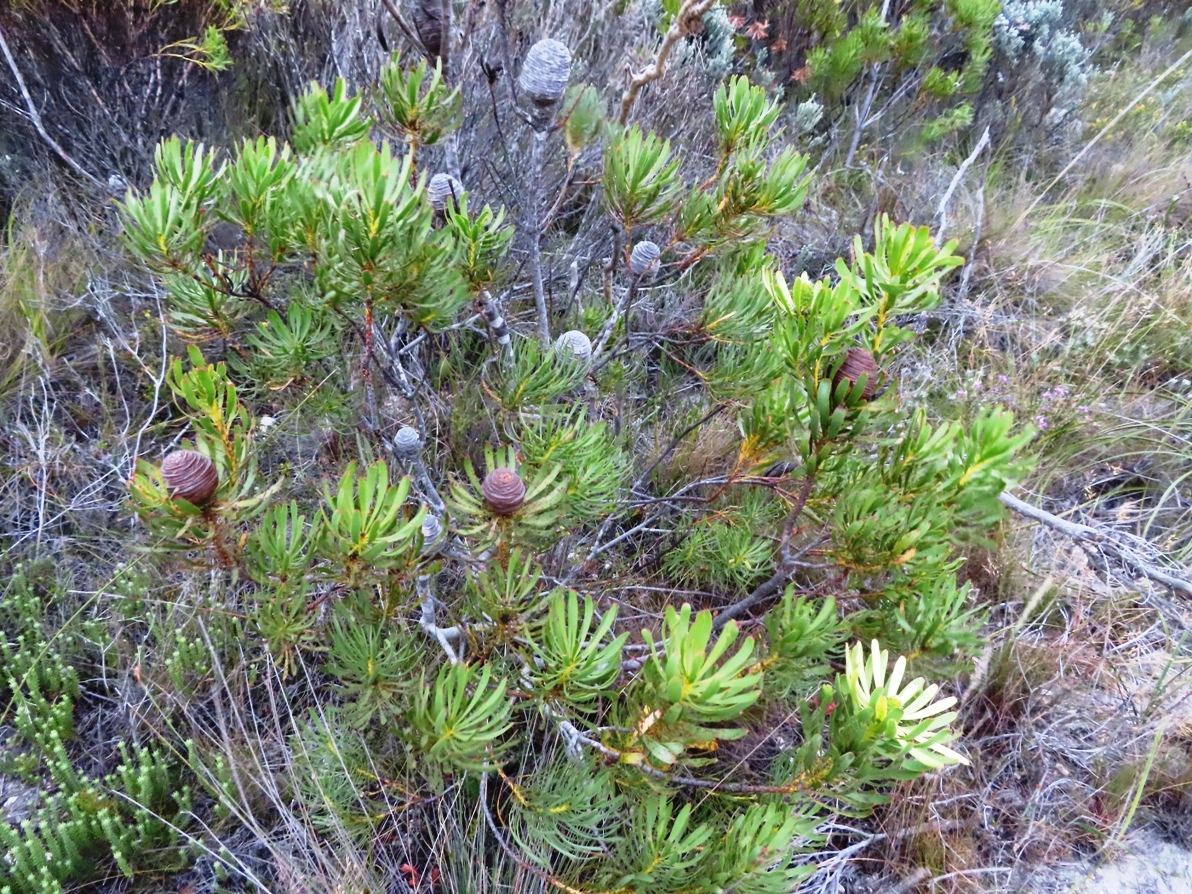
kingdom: Plantae
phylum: Tracheophyta
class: Magnoliopsida
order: Proteales
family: Proteaceae
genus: Leucadendron
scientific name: Leucadendron platyspermum
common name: Plate-seed conebush
